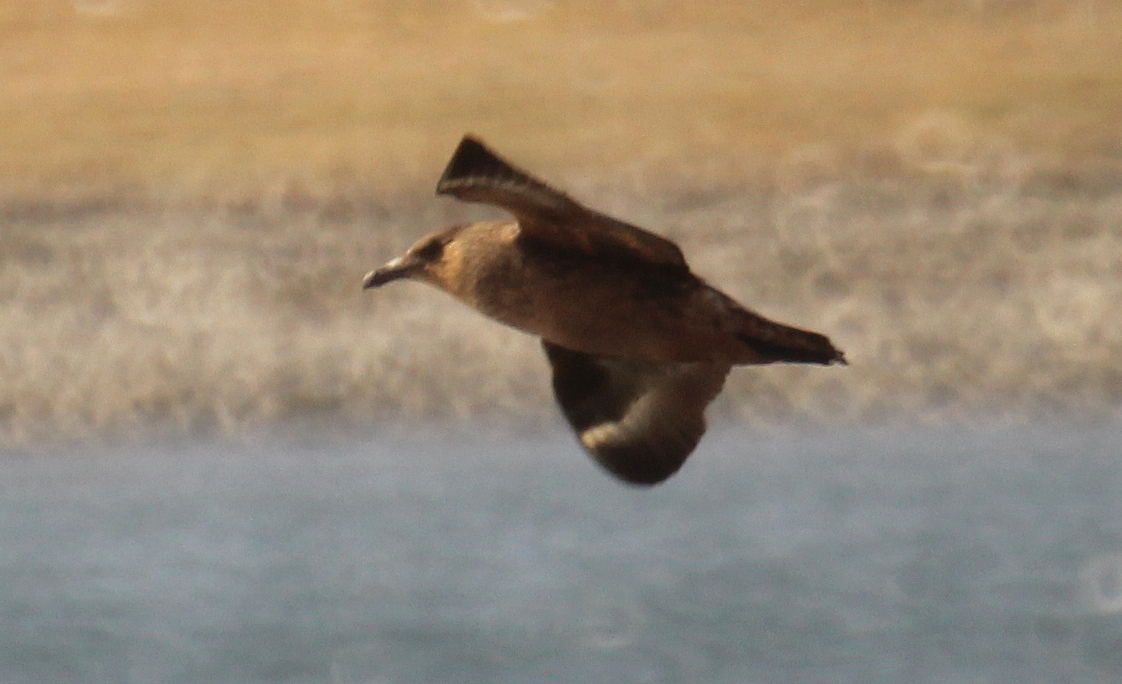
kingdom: Animalia
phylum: Chordata
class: Aves
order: Charadriiformes
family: Stercorariidae
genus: Stercorarius
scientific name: Stercorarius chilensis
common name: Chilean skua
